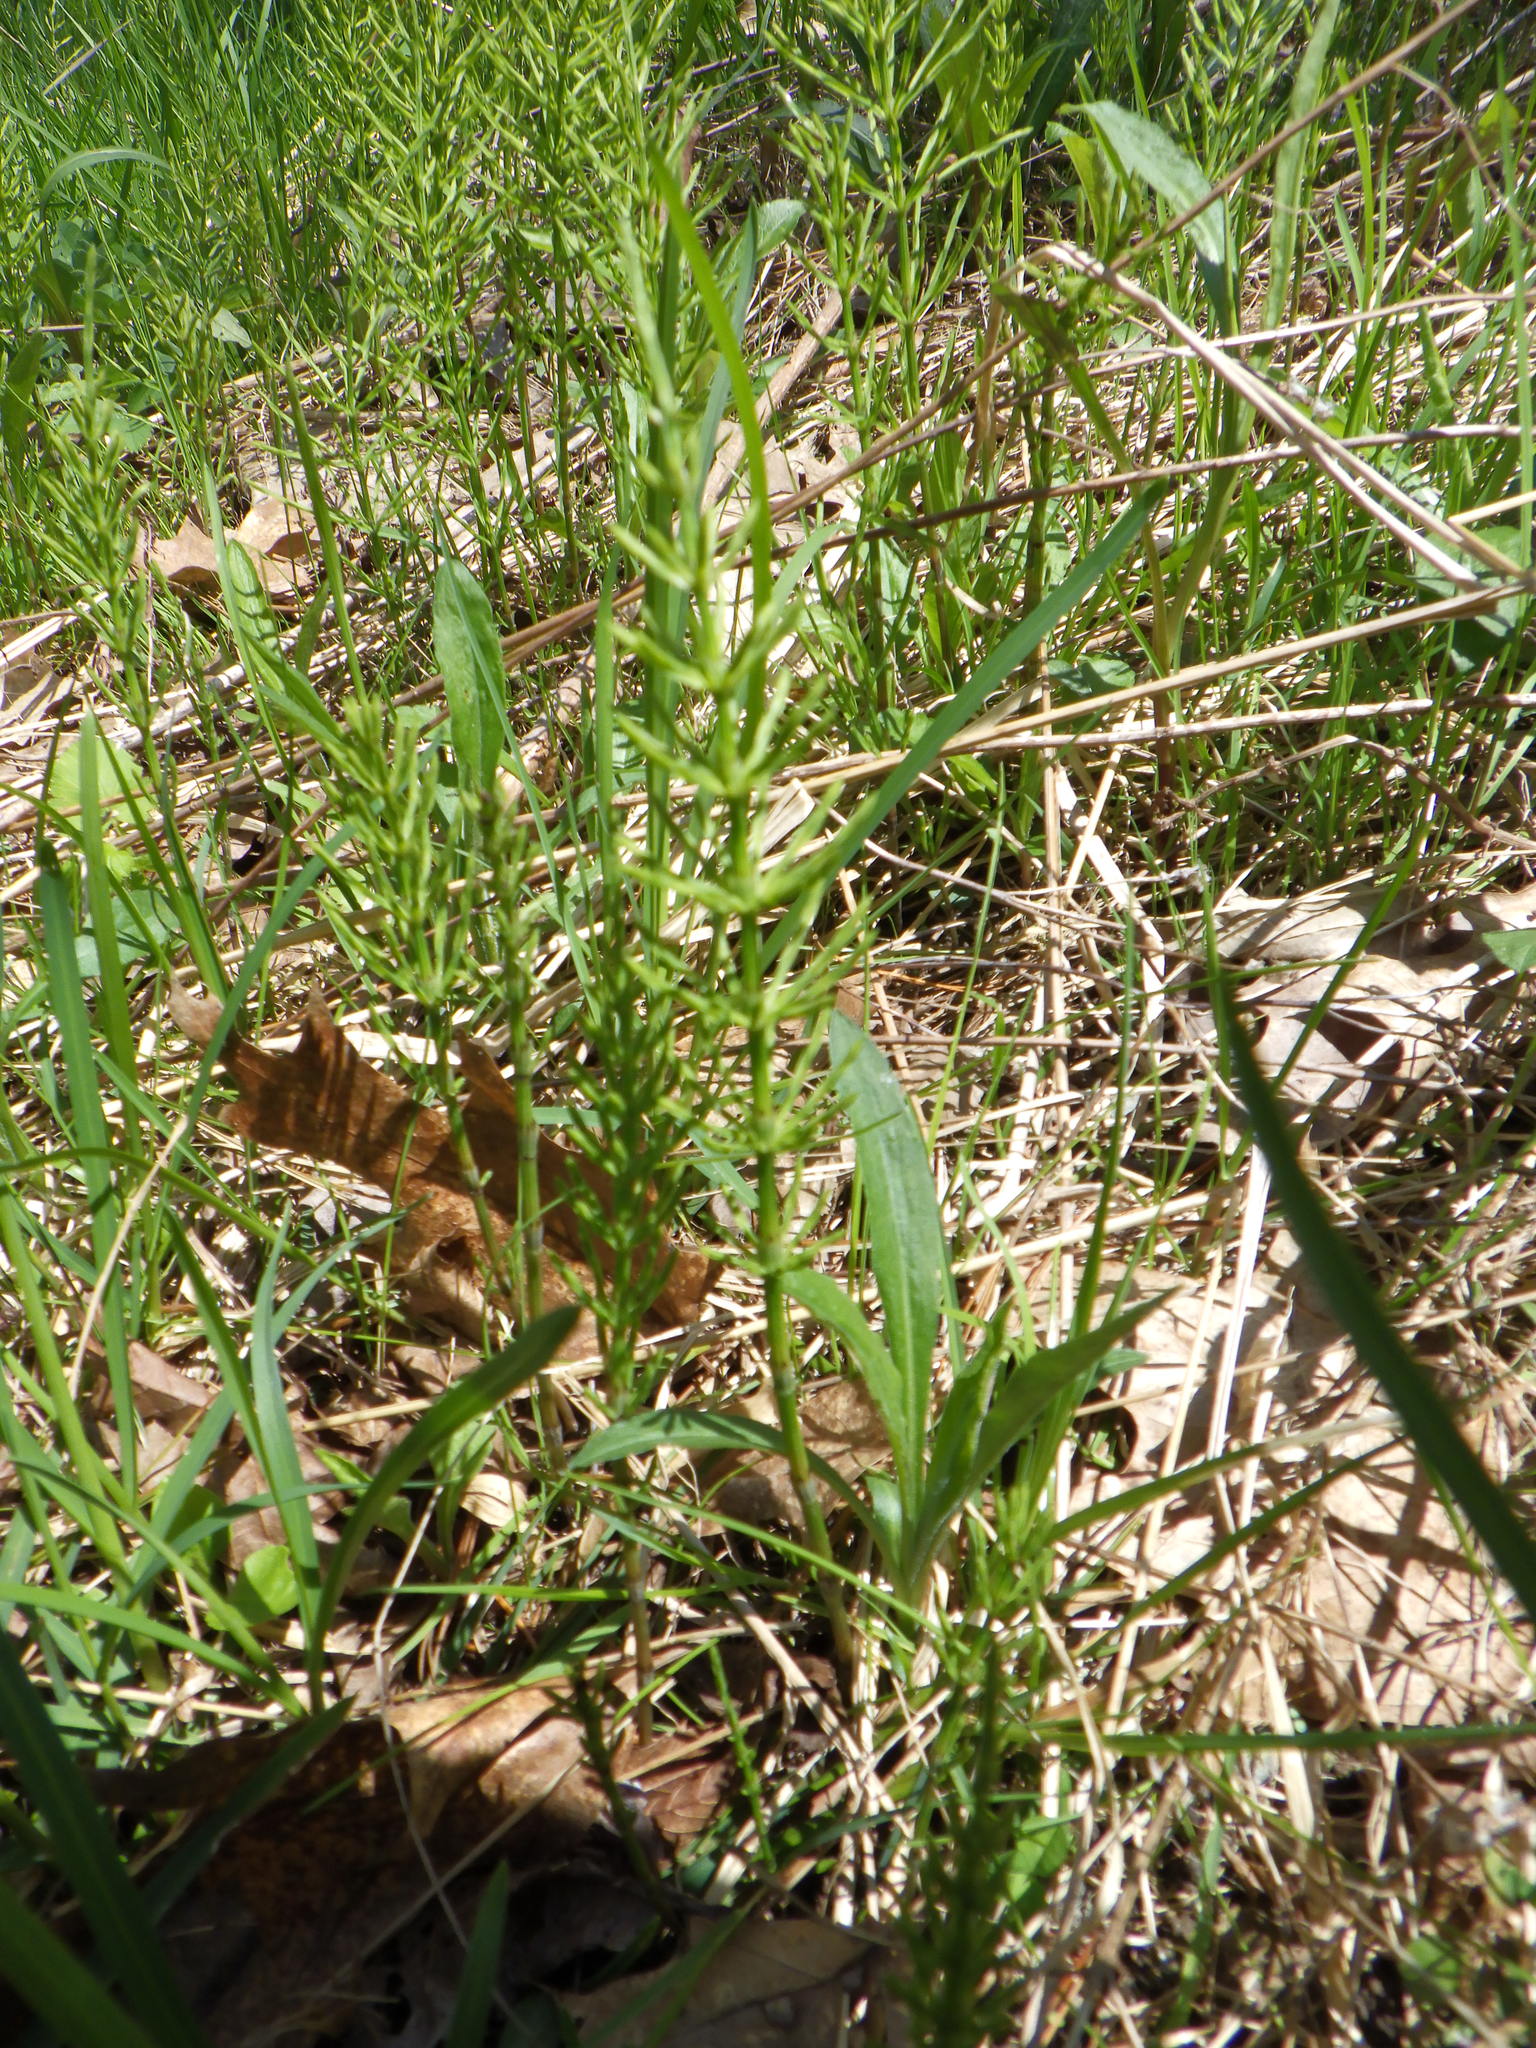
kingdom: Plantae
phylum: Tracheophyta
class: Polypodiopsida
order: Equisetales
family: Equisetaceae
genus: Equisetum
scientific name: Equisetum arvense
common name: Field horsetail
